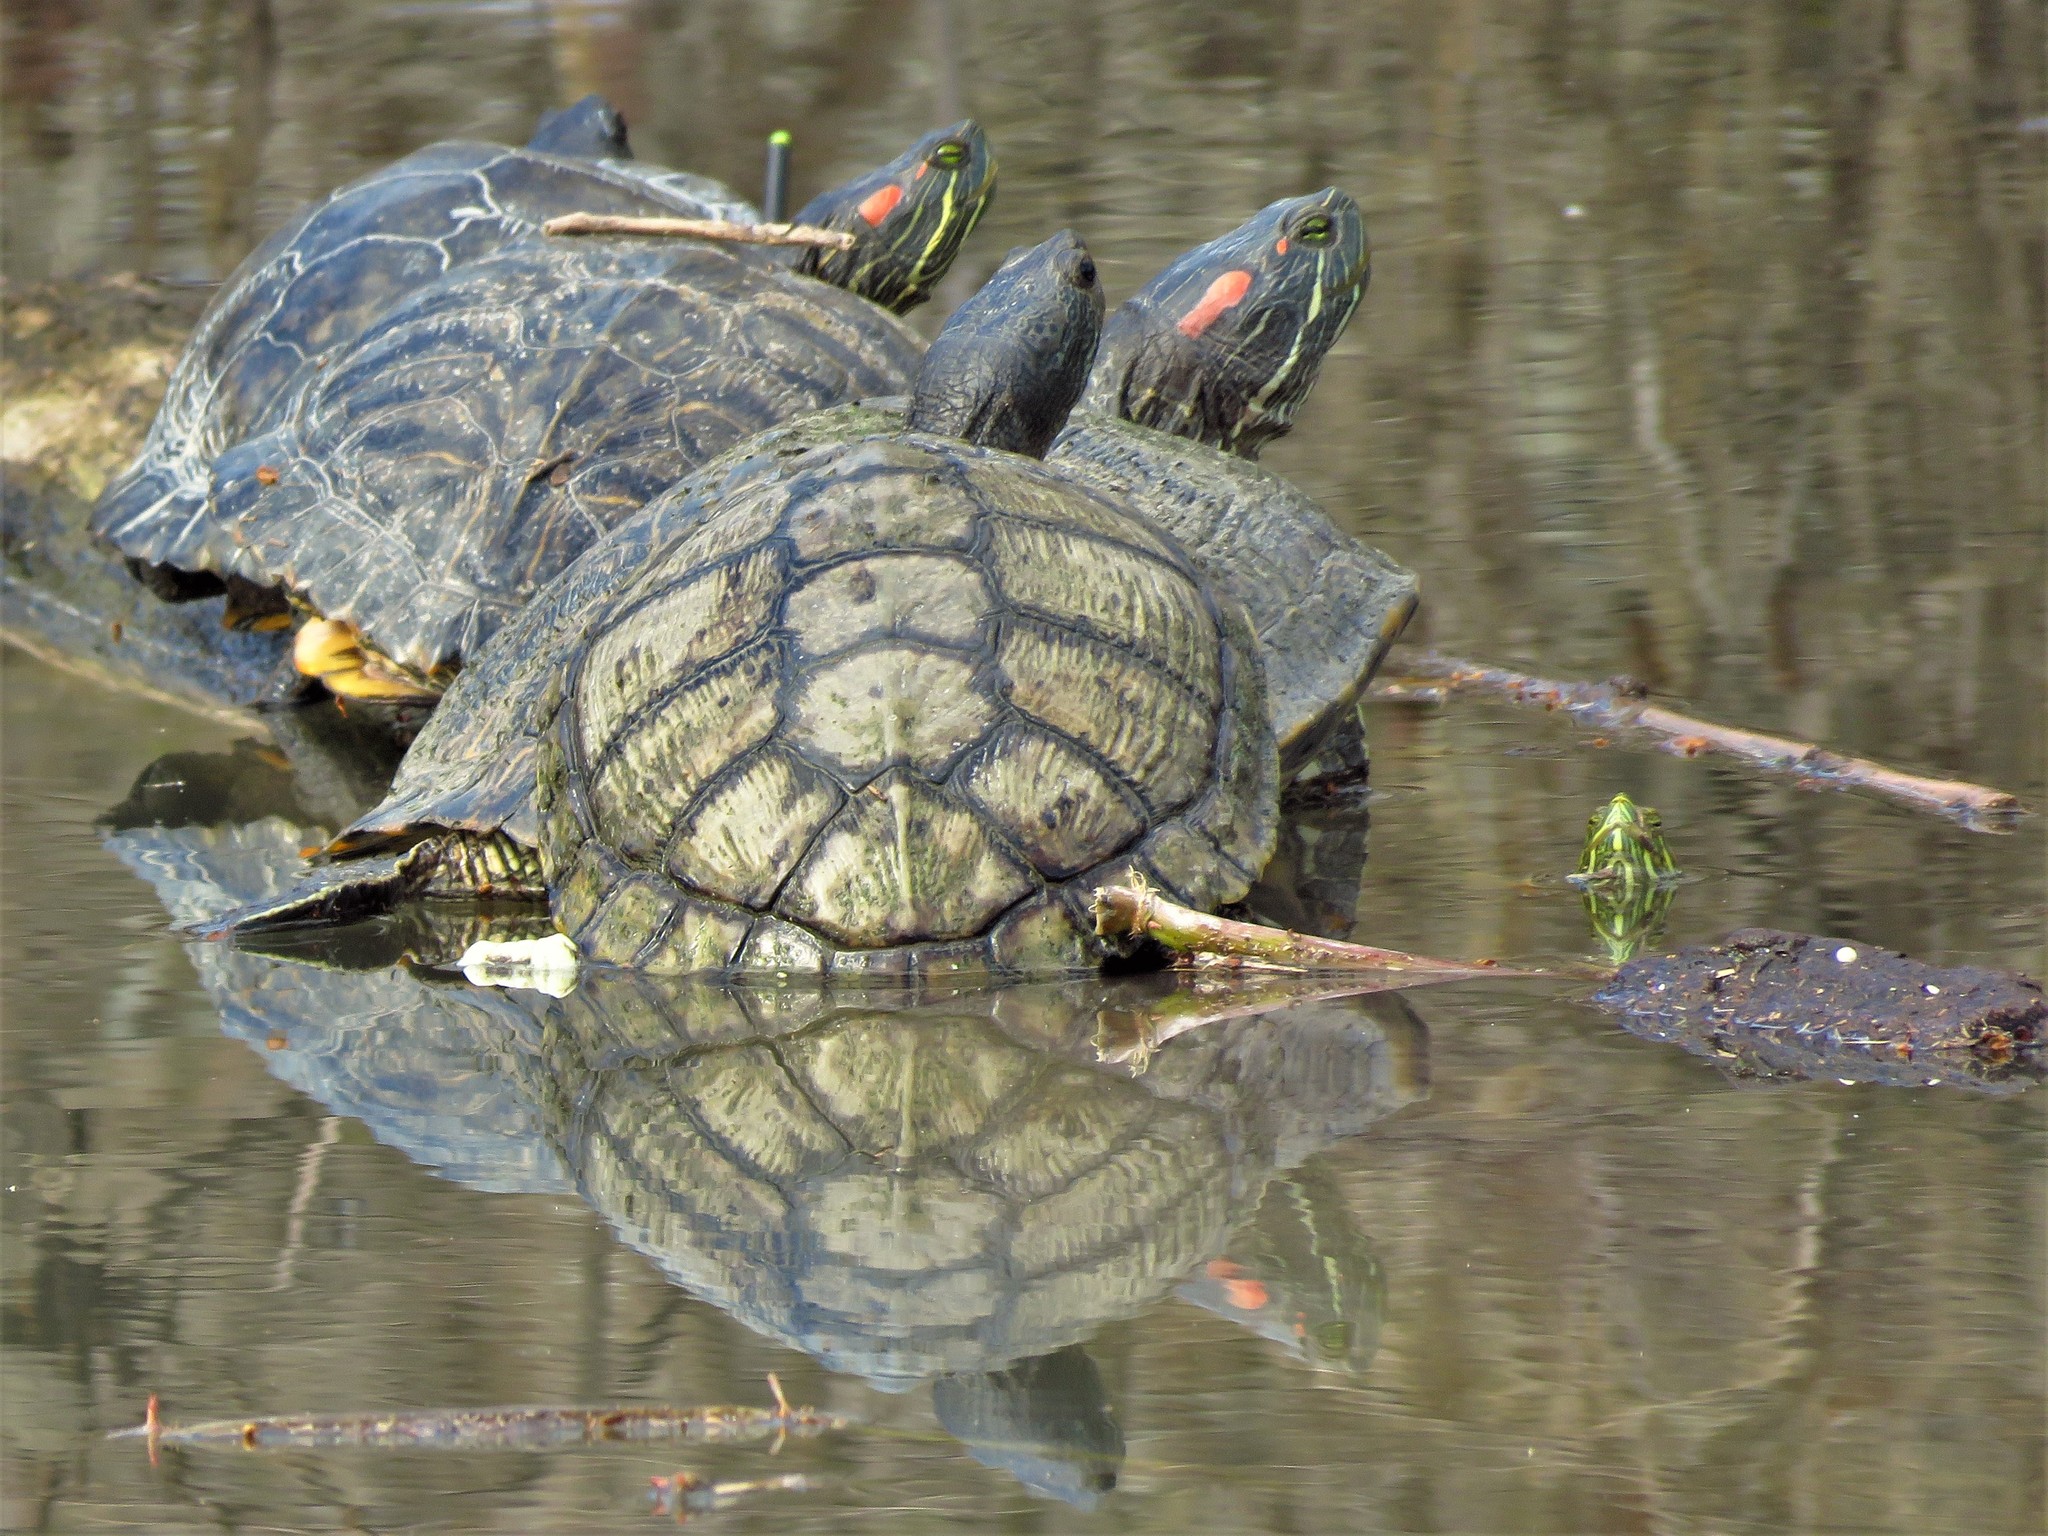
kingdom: Animalia
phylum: Chordata
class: Testudines
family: Emydidae
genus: Trachemys
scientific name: Trachemys scripta
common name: Slider
